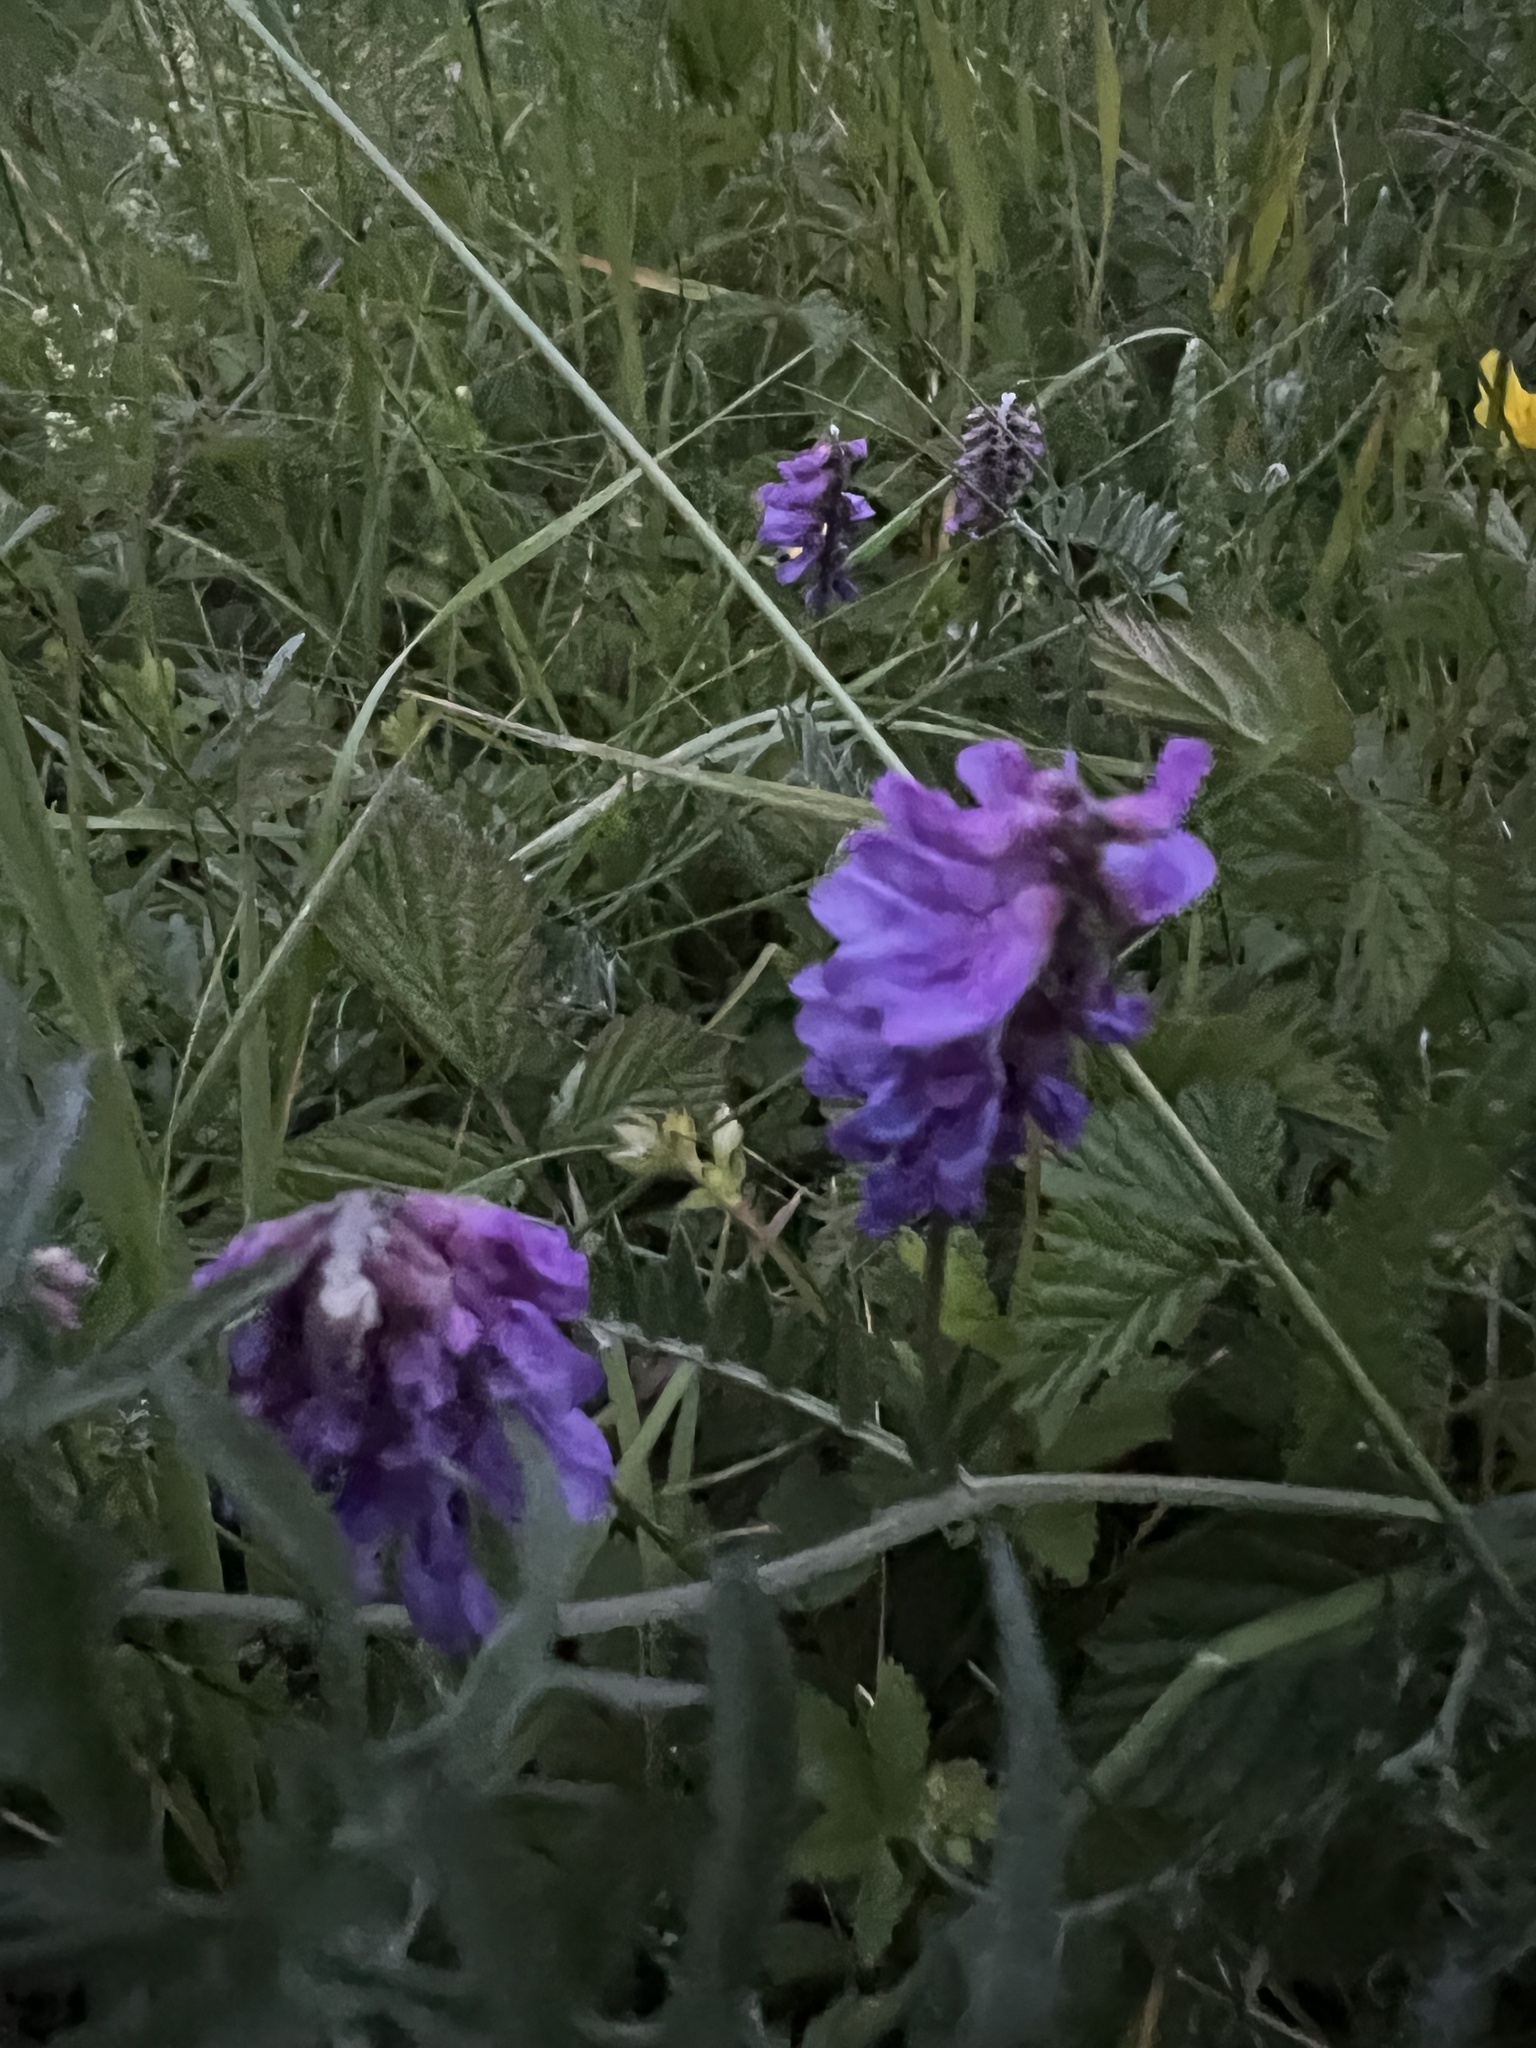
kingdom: Plantae
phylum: Tracheophyta
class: Magnoliopsida
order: Fabales
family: Fabaceae
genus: Vicia
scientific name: Vicia cracca
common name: Bird vetch
